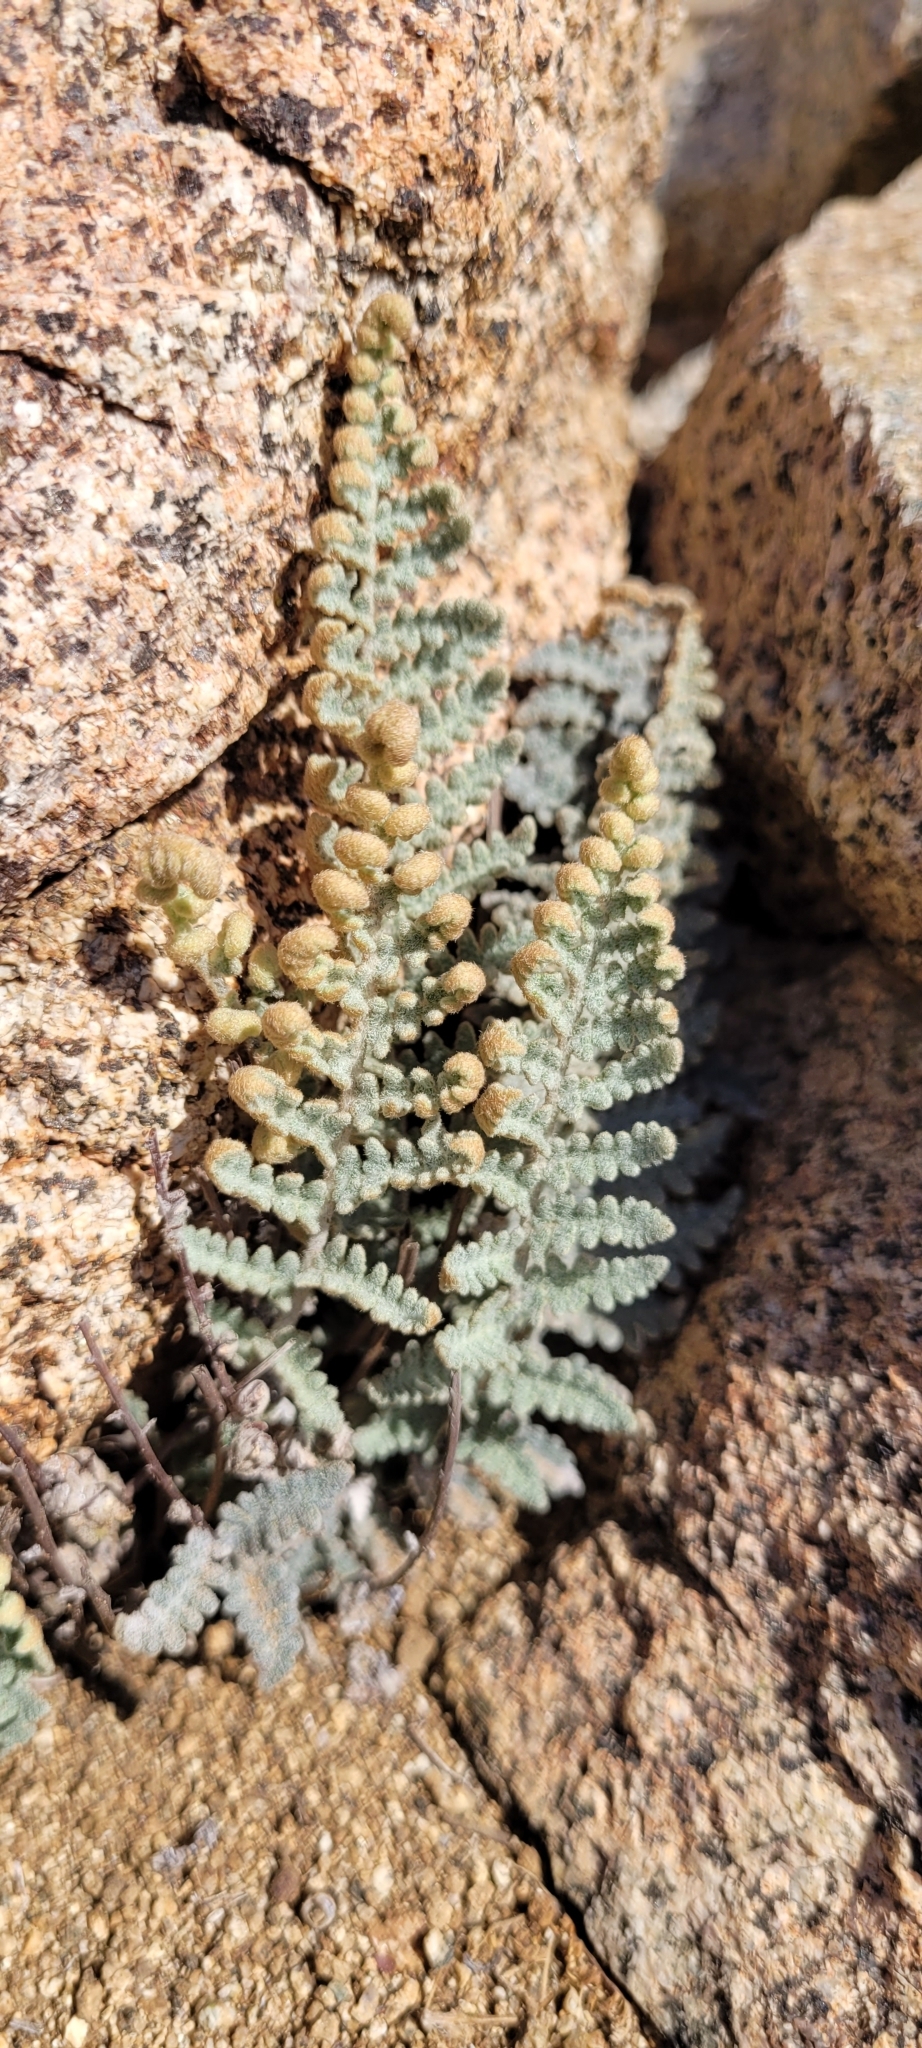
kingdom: Plantae
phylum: Tracheophyta
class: Polypodiopsida
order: Polypodiales
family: Pteridaceae
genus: Cheilanthes
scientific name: Cheilanthes mollis
